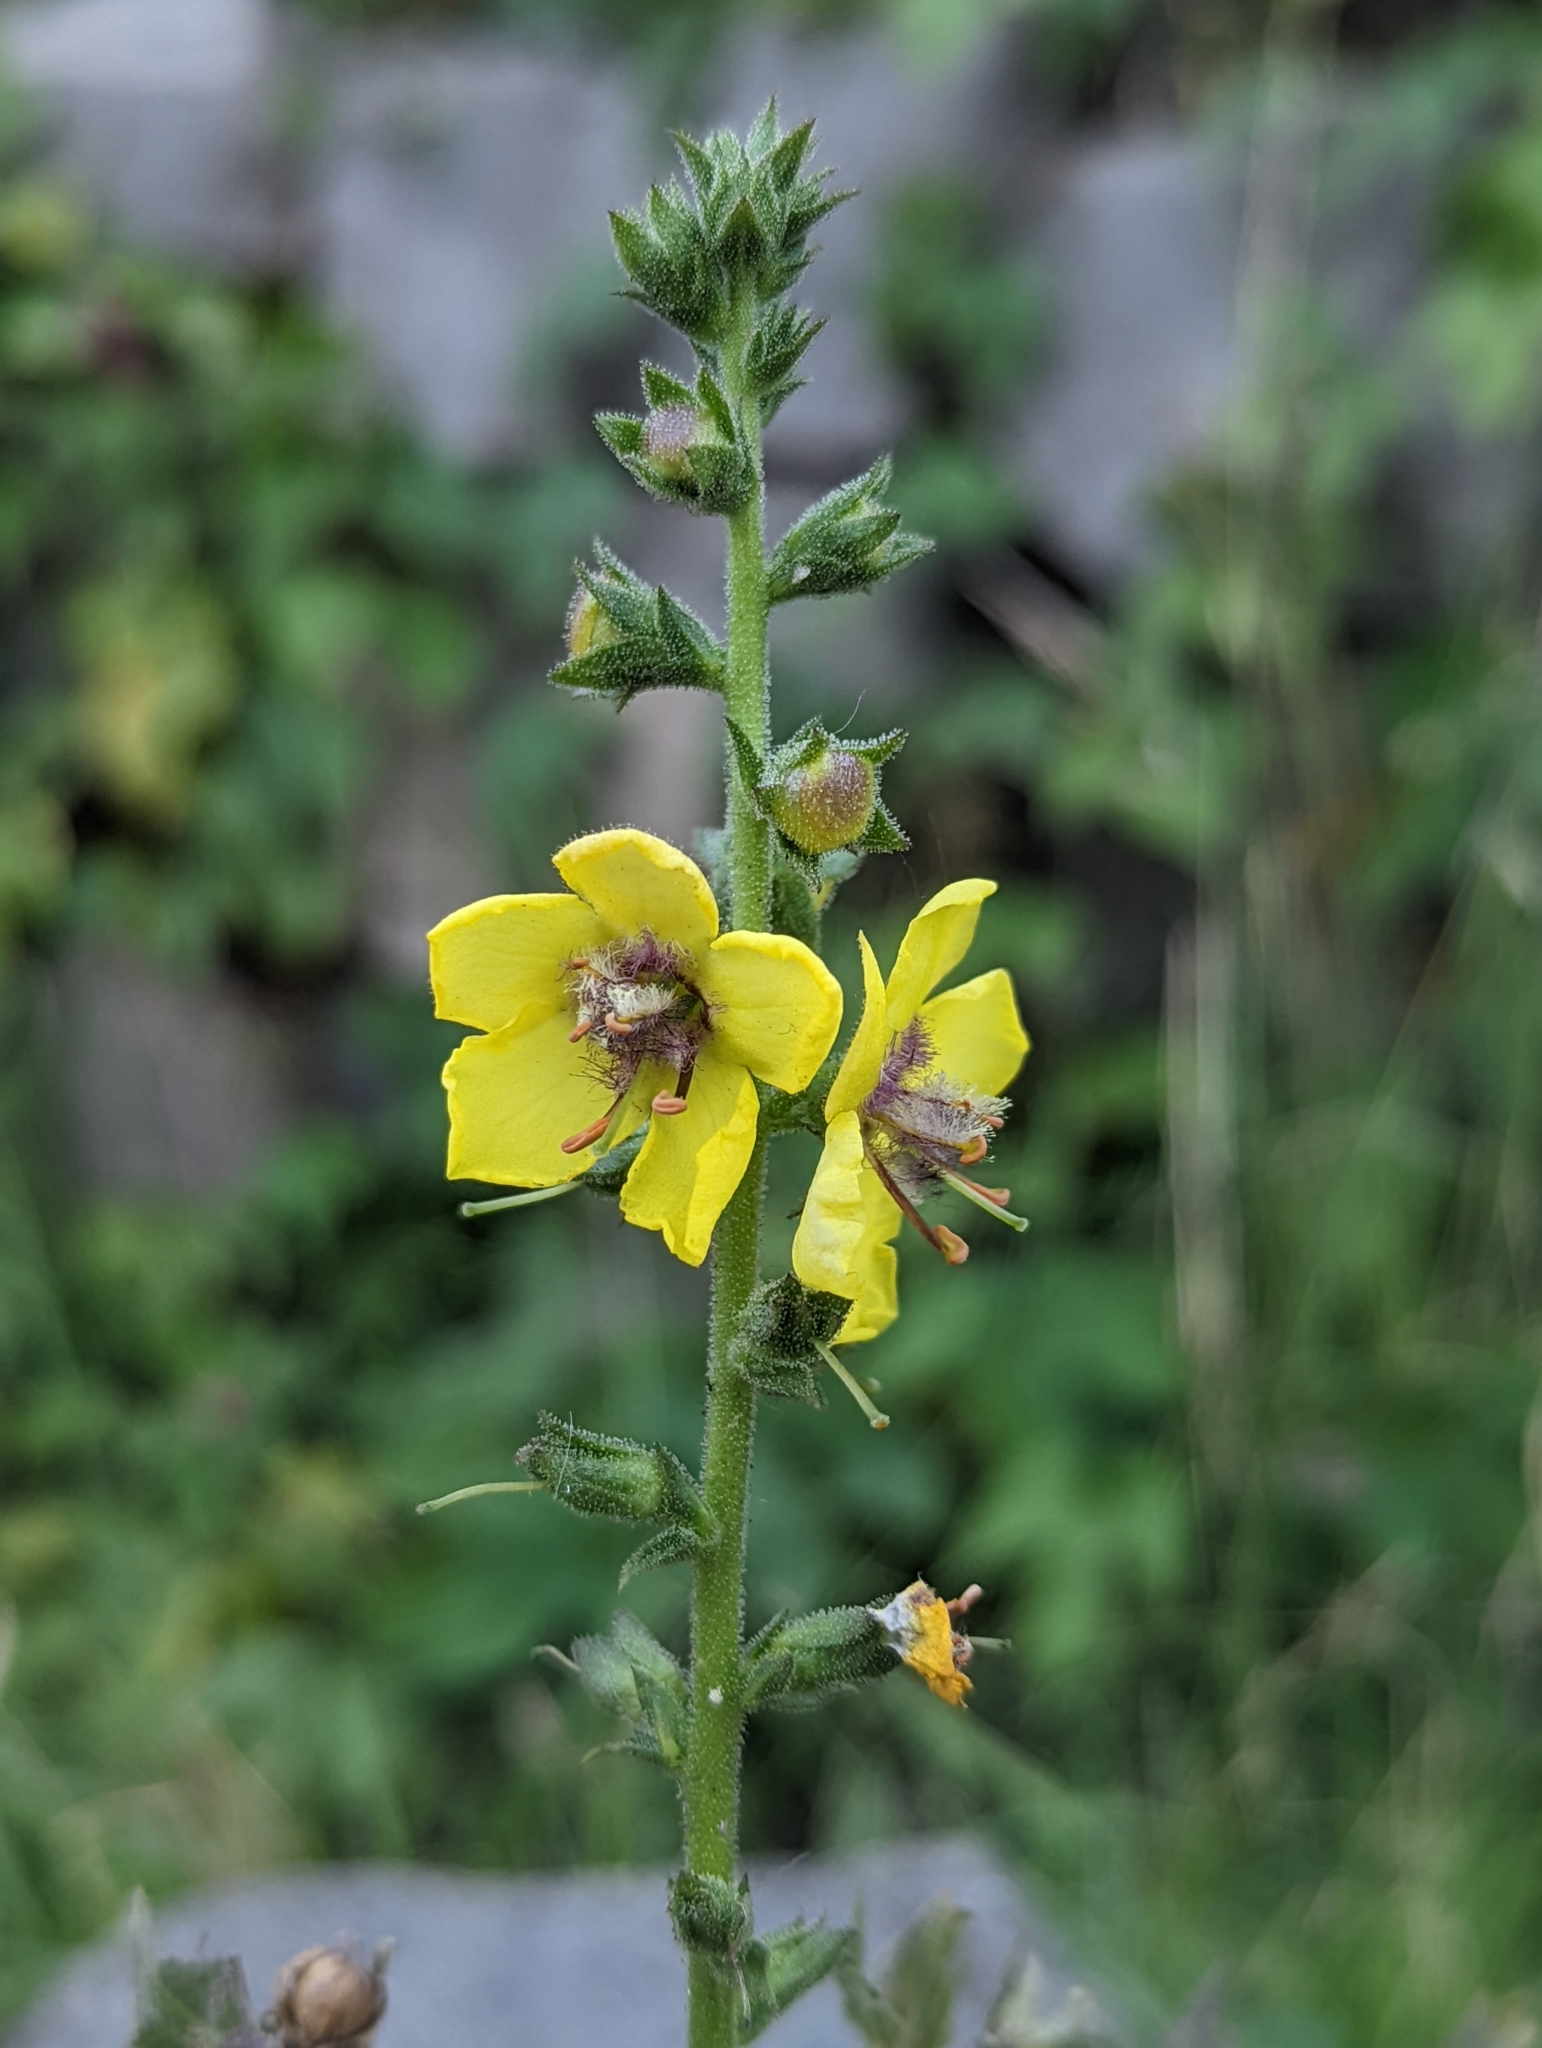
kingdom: Plantae
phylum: Tracheophyta
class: Magnoliopsida
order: Lamiales
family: Scrophulariaceae
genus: Verbascum
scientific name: Verbascum virgatum
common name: Twiggy mullein
